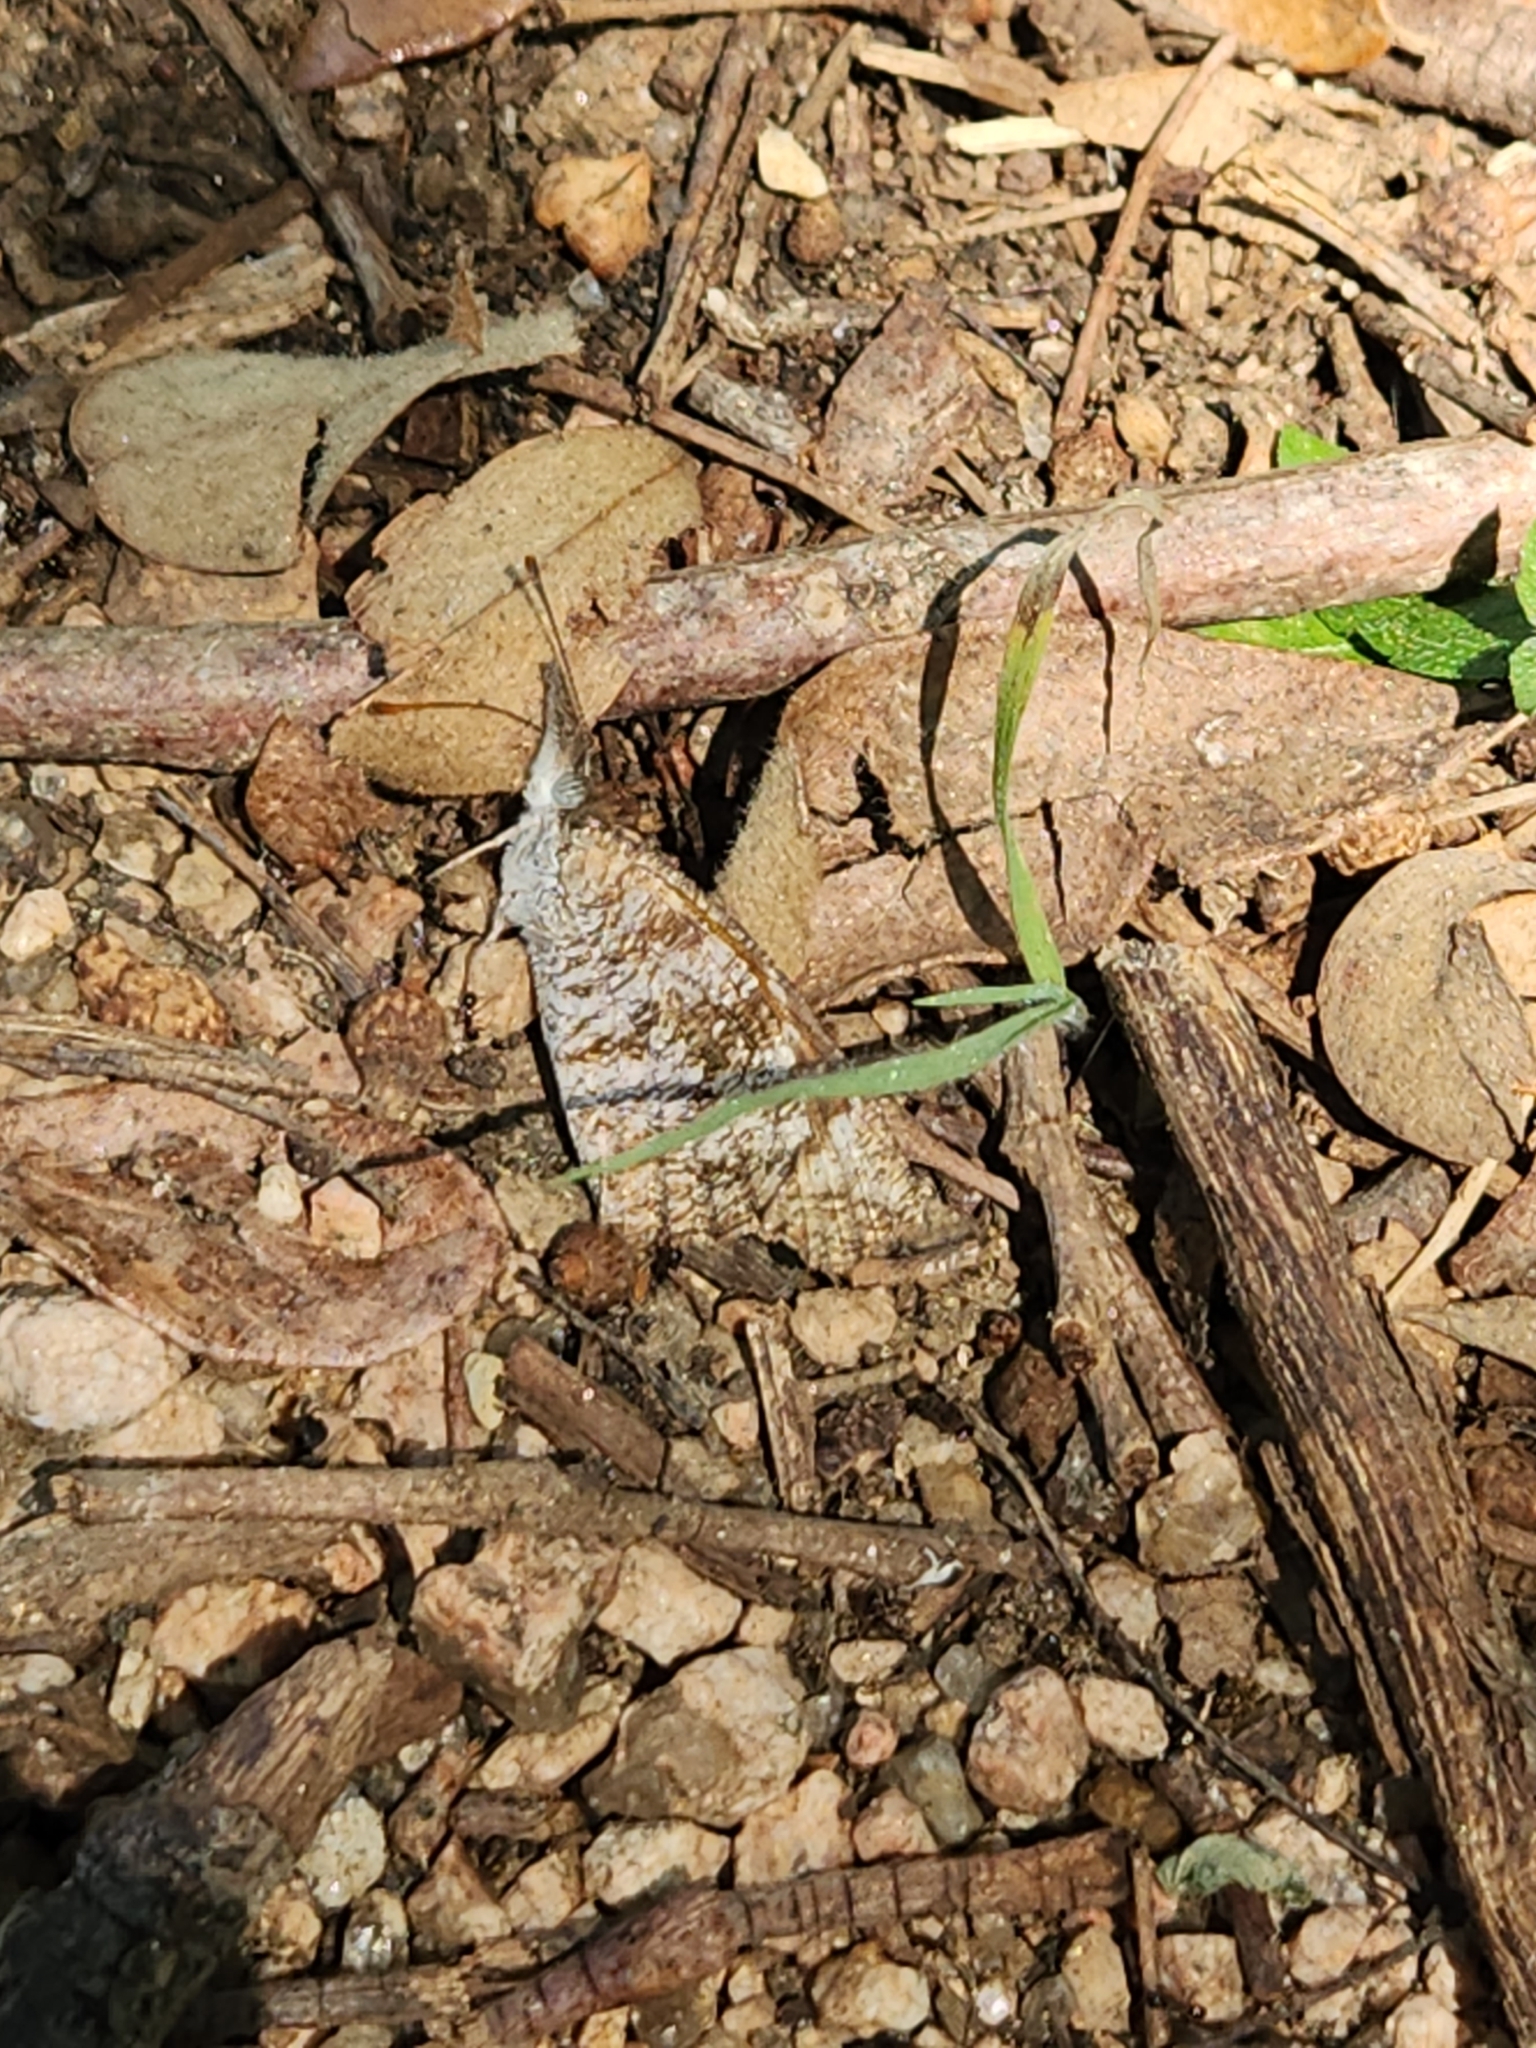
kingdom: Animalia
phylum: Arthropoda
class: Insecta
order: Lepidoptera
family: Nymphalidae
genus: Libytheana
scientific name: Libytheana carinenta
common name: American snout
